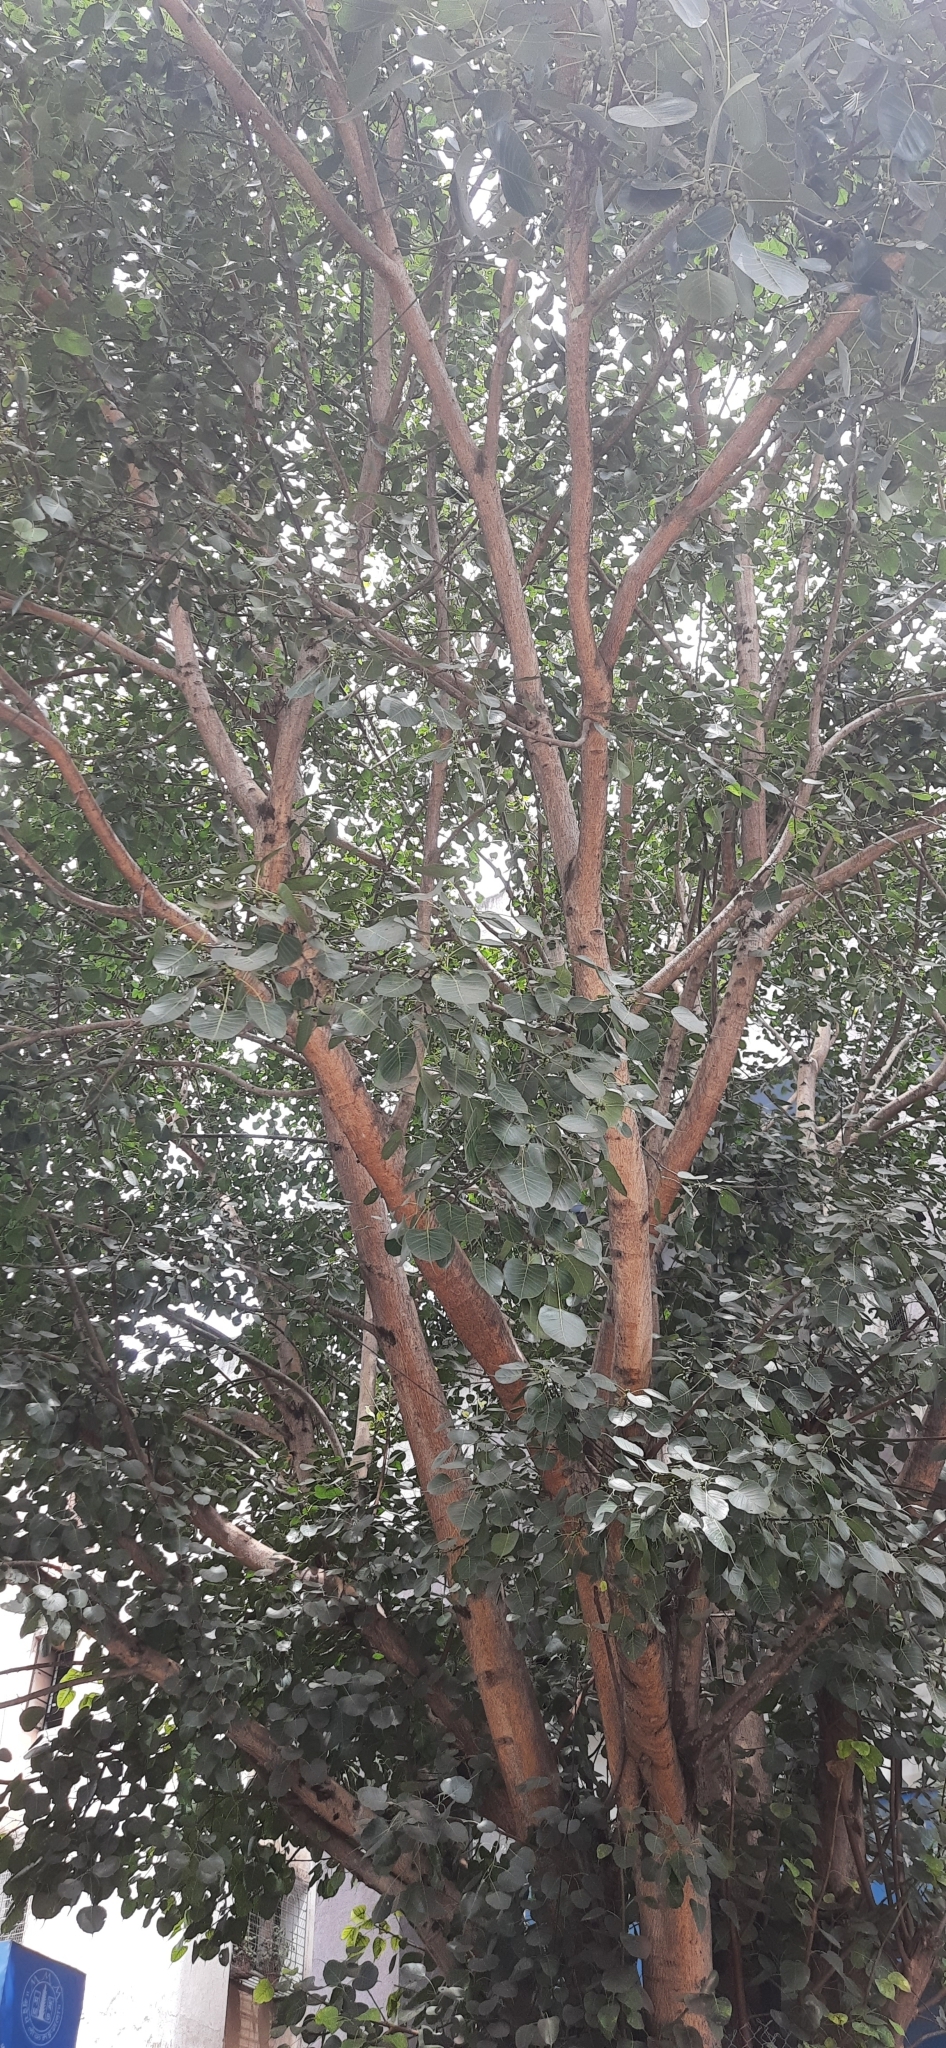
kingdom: Plantae
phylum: Tracheophyta
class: Magnoliopsida
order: Rosales
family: Moraceae
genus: Ficus
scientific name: Ficus religiosa
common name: Bodhi tree
